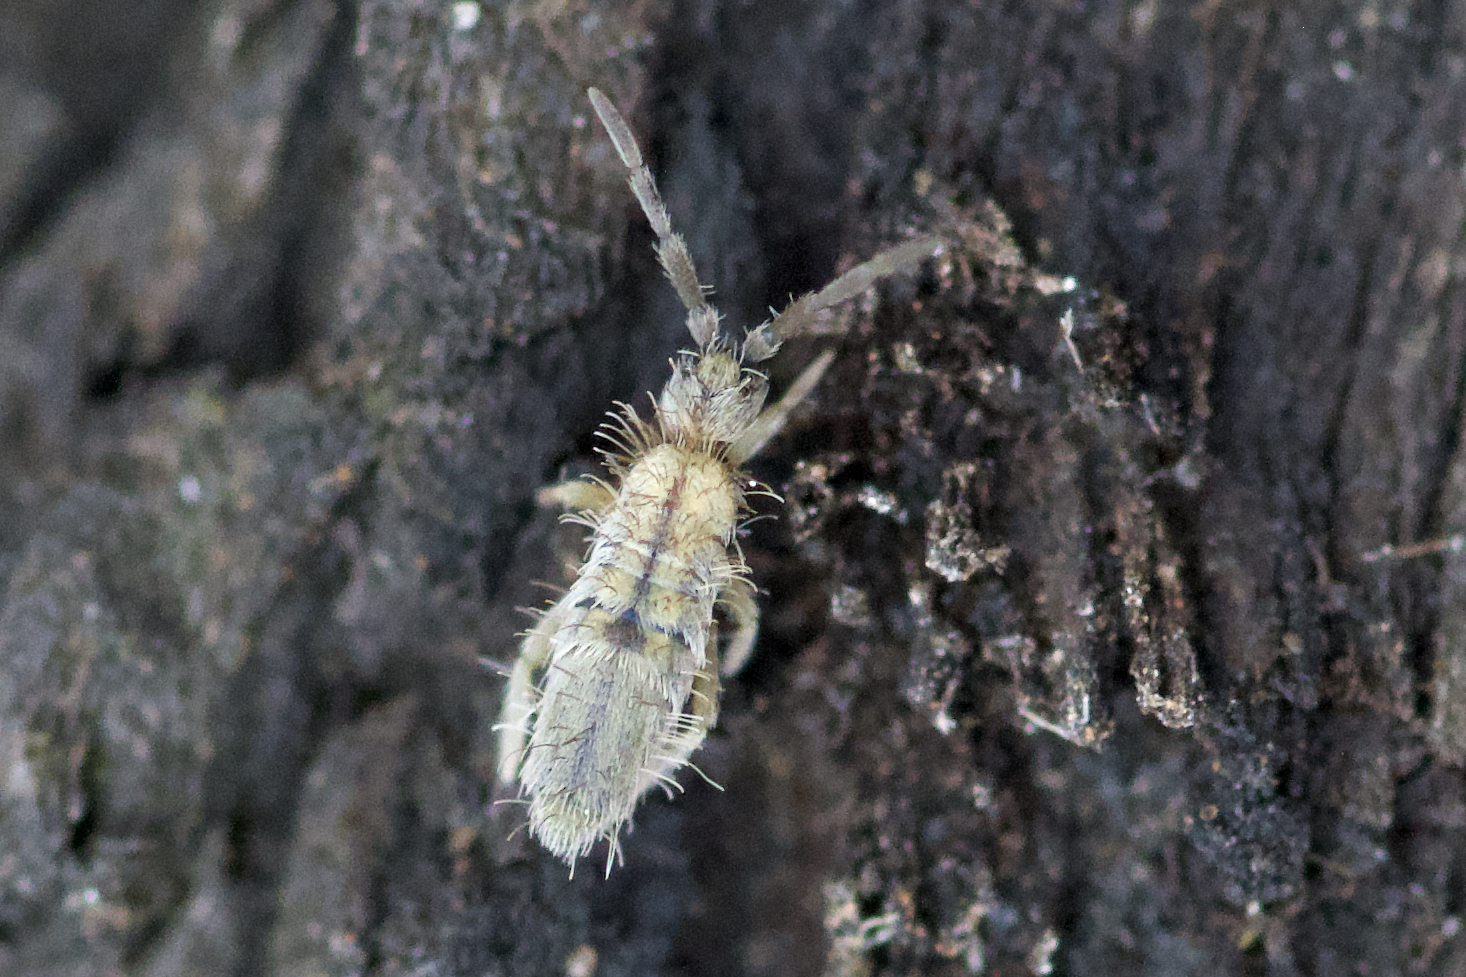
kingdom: Animalia
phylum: Arthropoda
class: Collembola
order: Entomobryomorpha
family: Entomobryidae
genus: Entomobrya
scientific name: Entomobrya unostrigata
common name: Springtail
